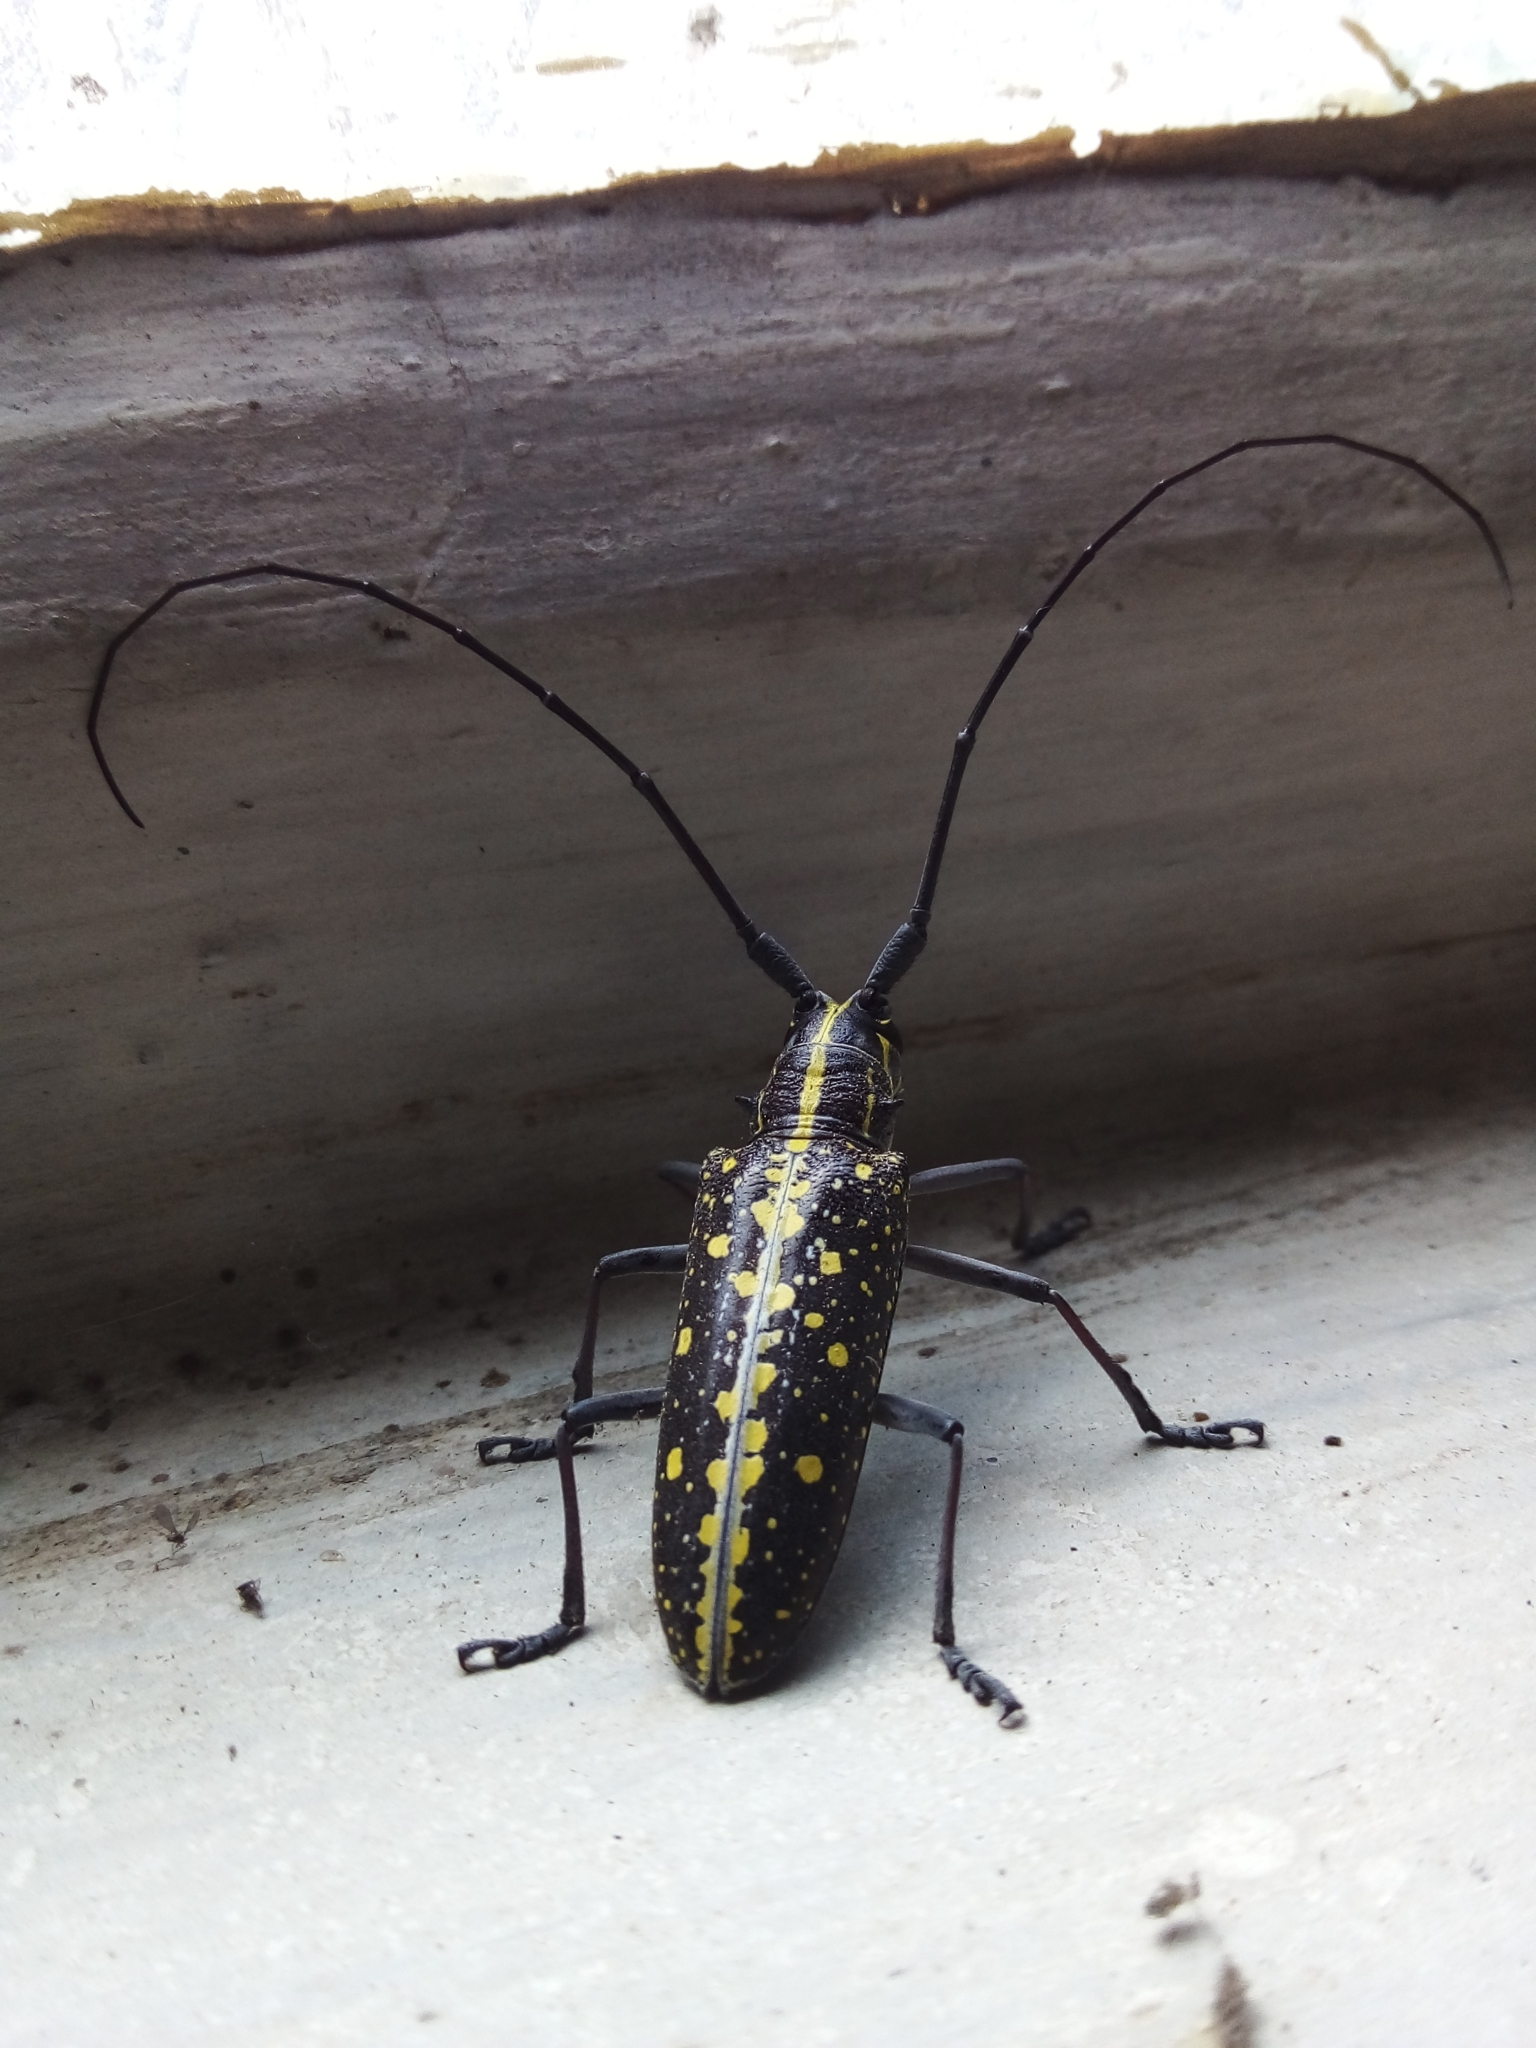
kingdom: Animalia
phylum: Arthropoda
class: Insecta
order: Coleoptera
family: Cerambycidae
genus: Taeniotes
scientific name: Taeniotes amazonum
